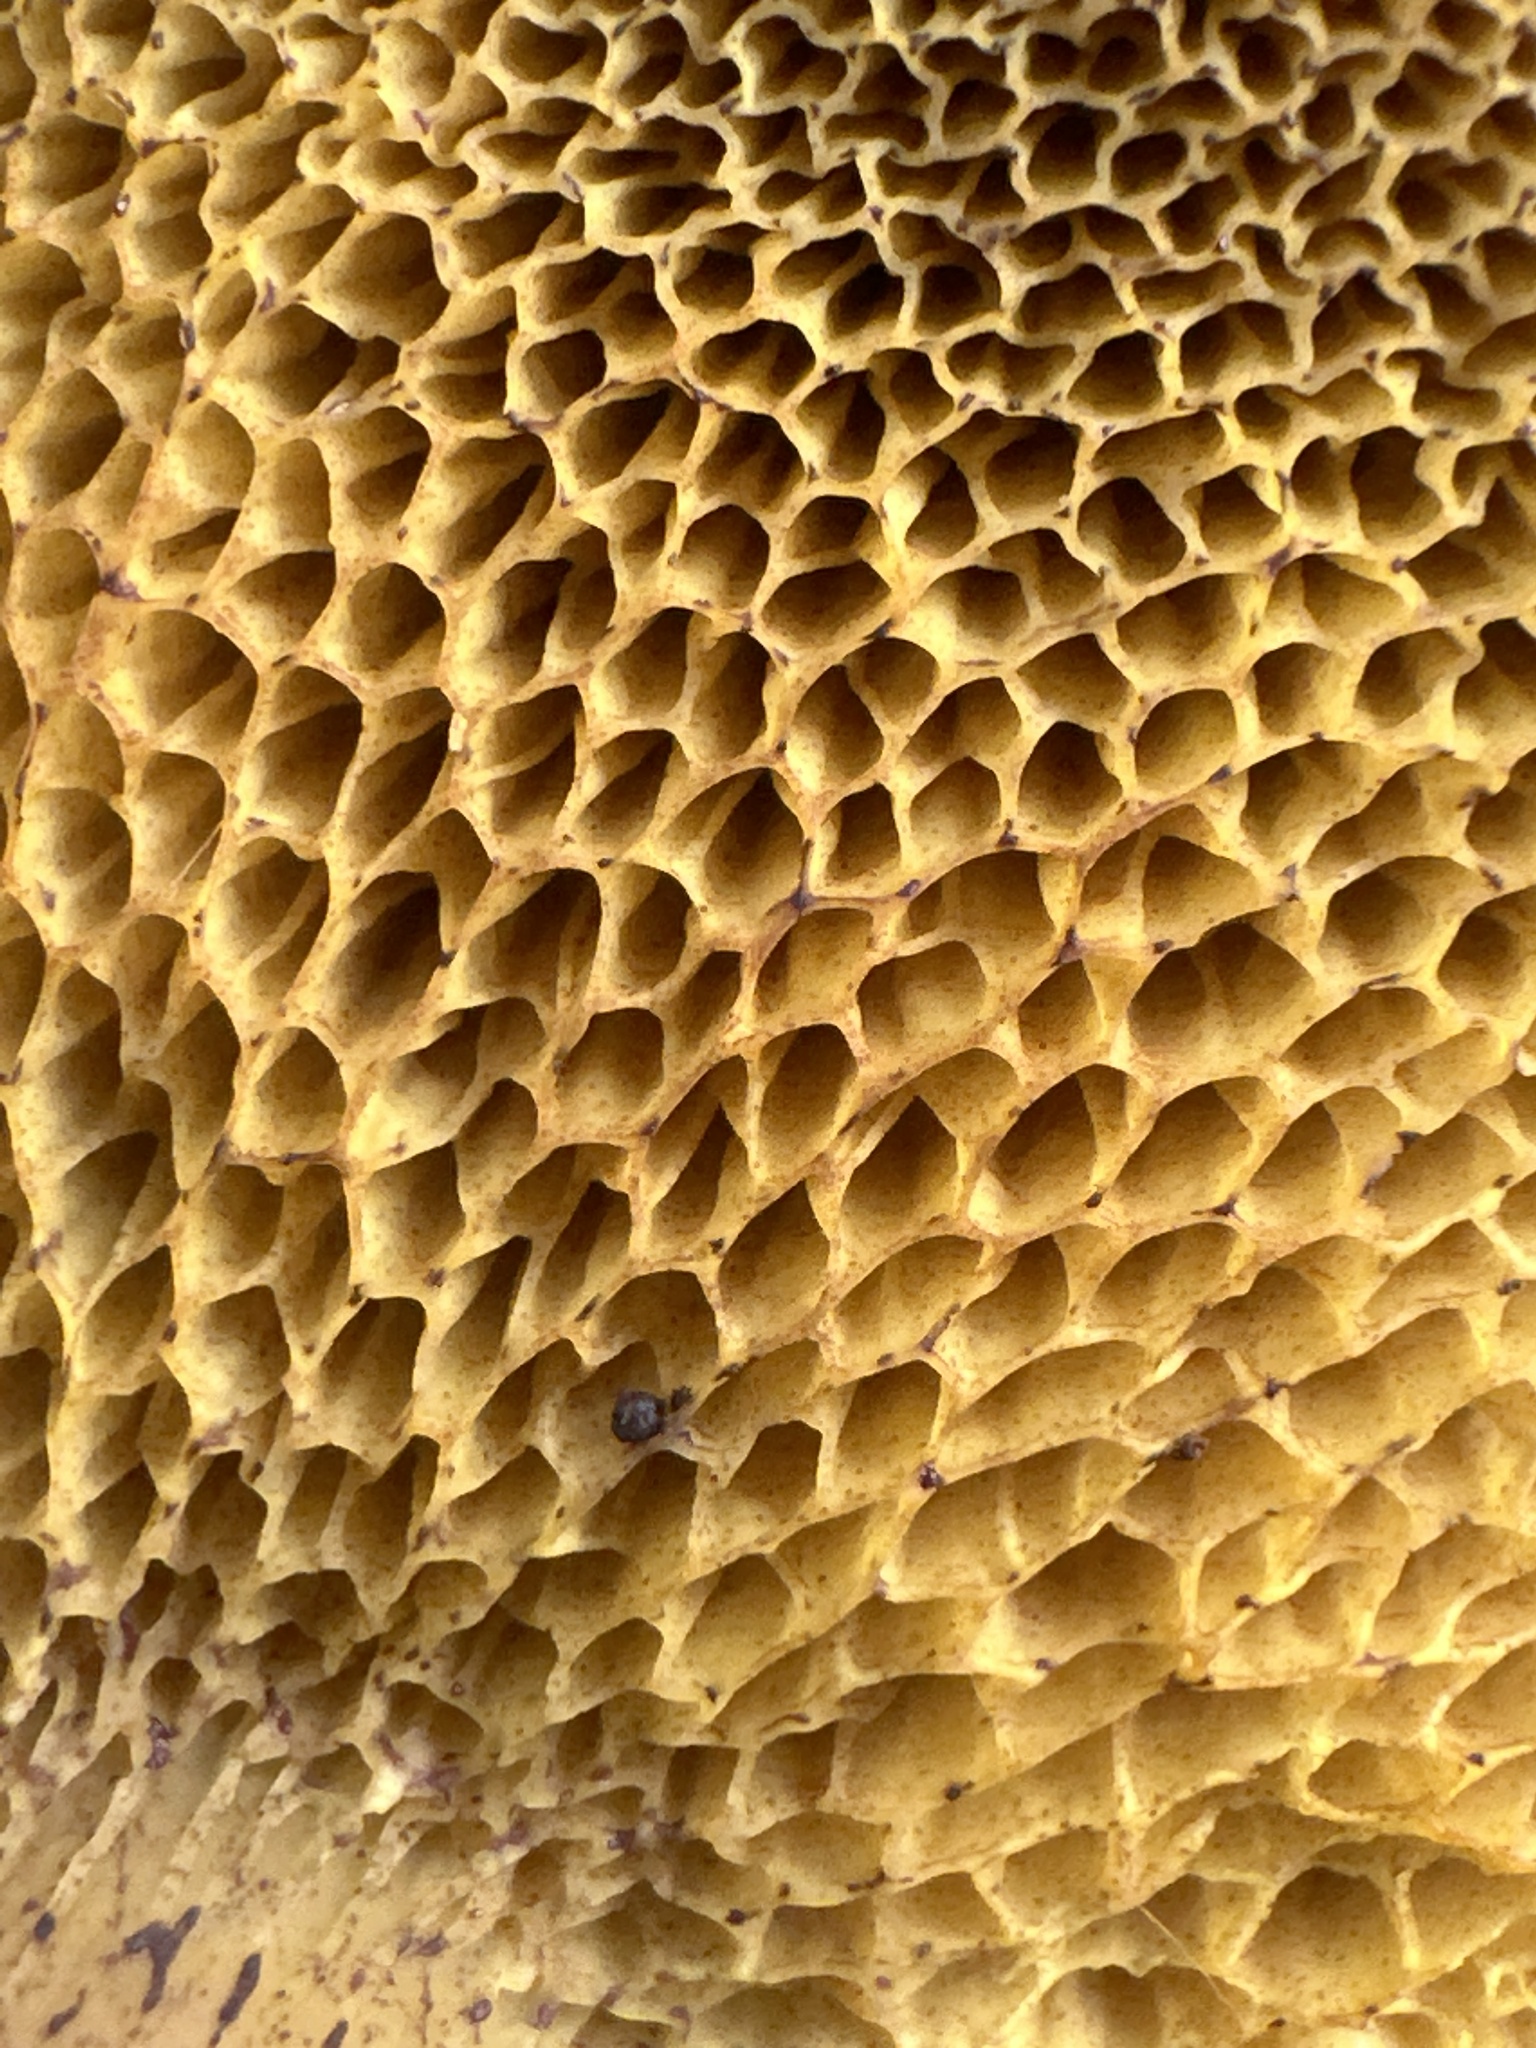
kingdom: Fungi
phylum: Basidiomycota
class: Agaricomycetes
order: Boletales
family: Suillaceae
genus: Suillus
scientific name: Suillus cavipes
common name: Hollow bolete
